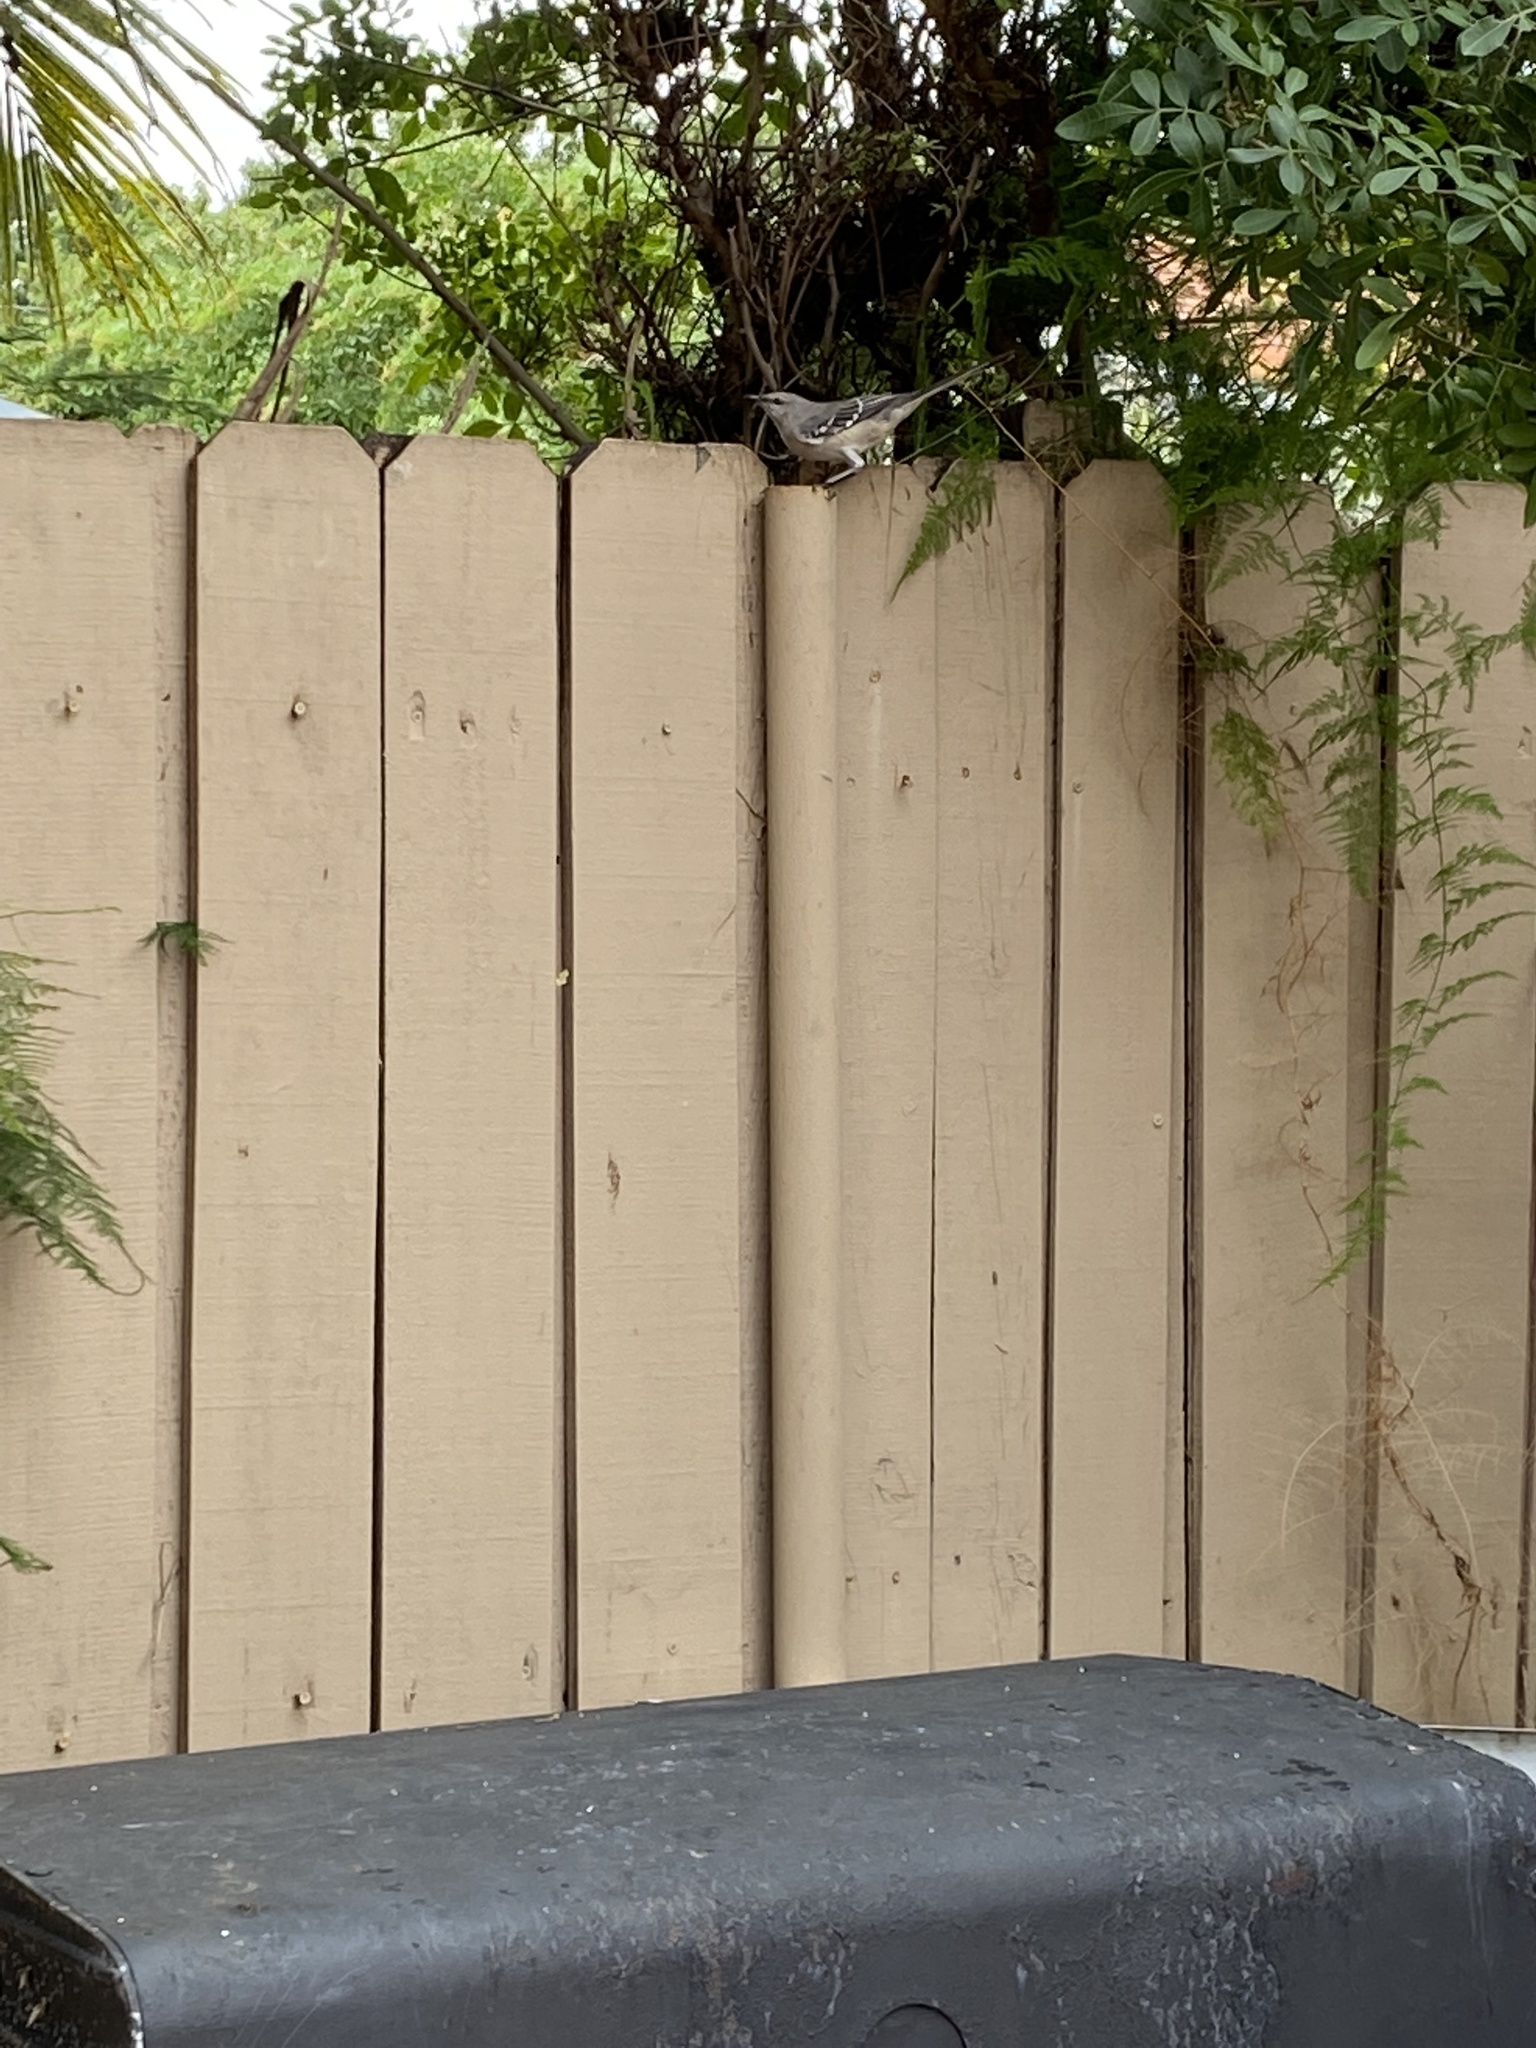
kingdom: Animalia
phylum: Chordata
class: Aves
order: Passeriformes
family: Mimidae
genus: Mimus
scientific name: Mimus polyglottos
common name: Northern mockingbird
